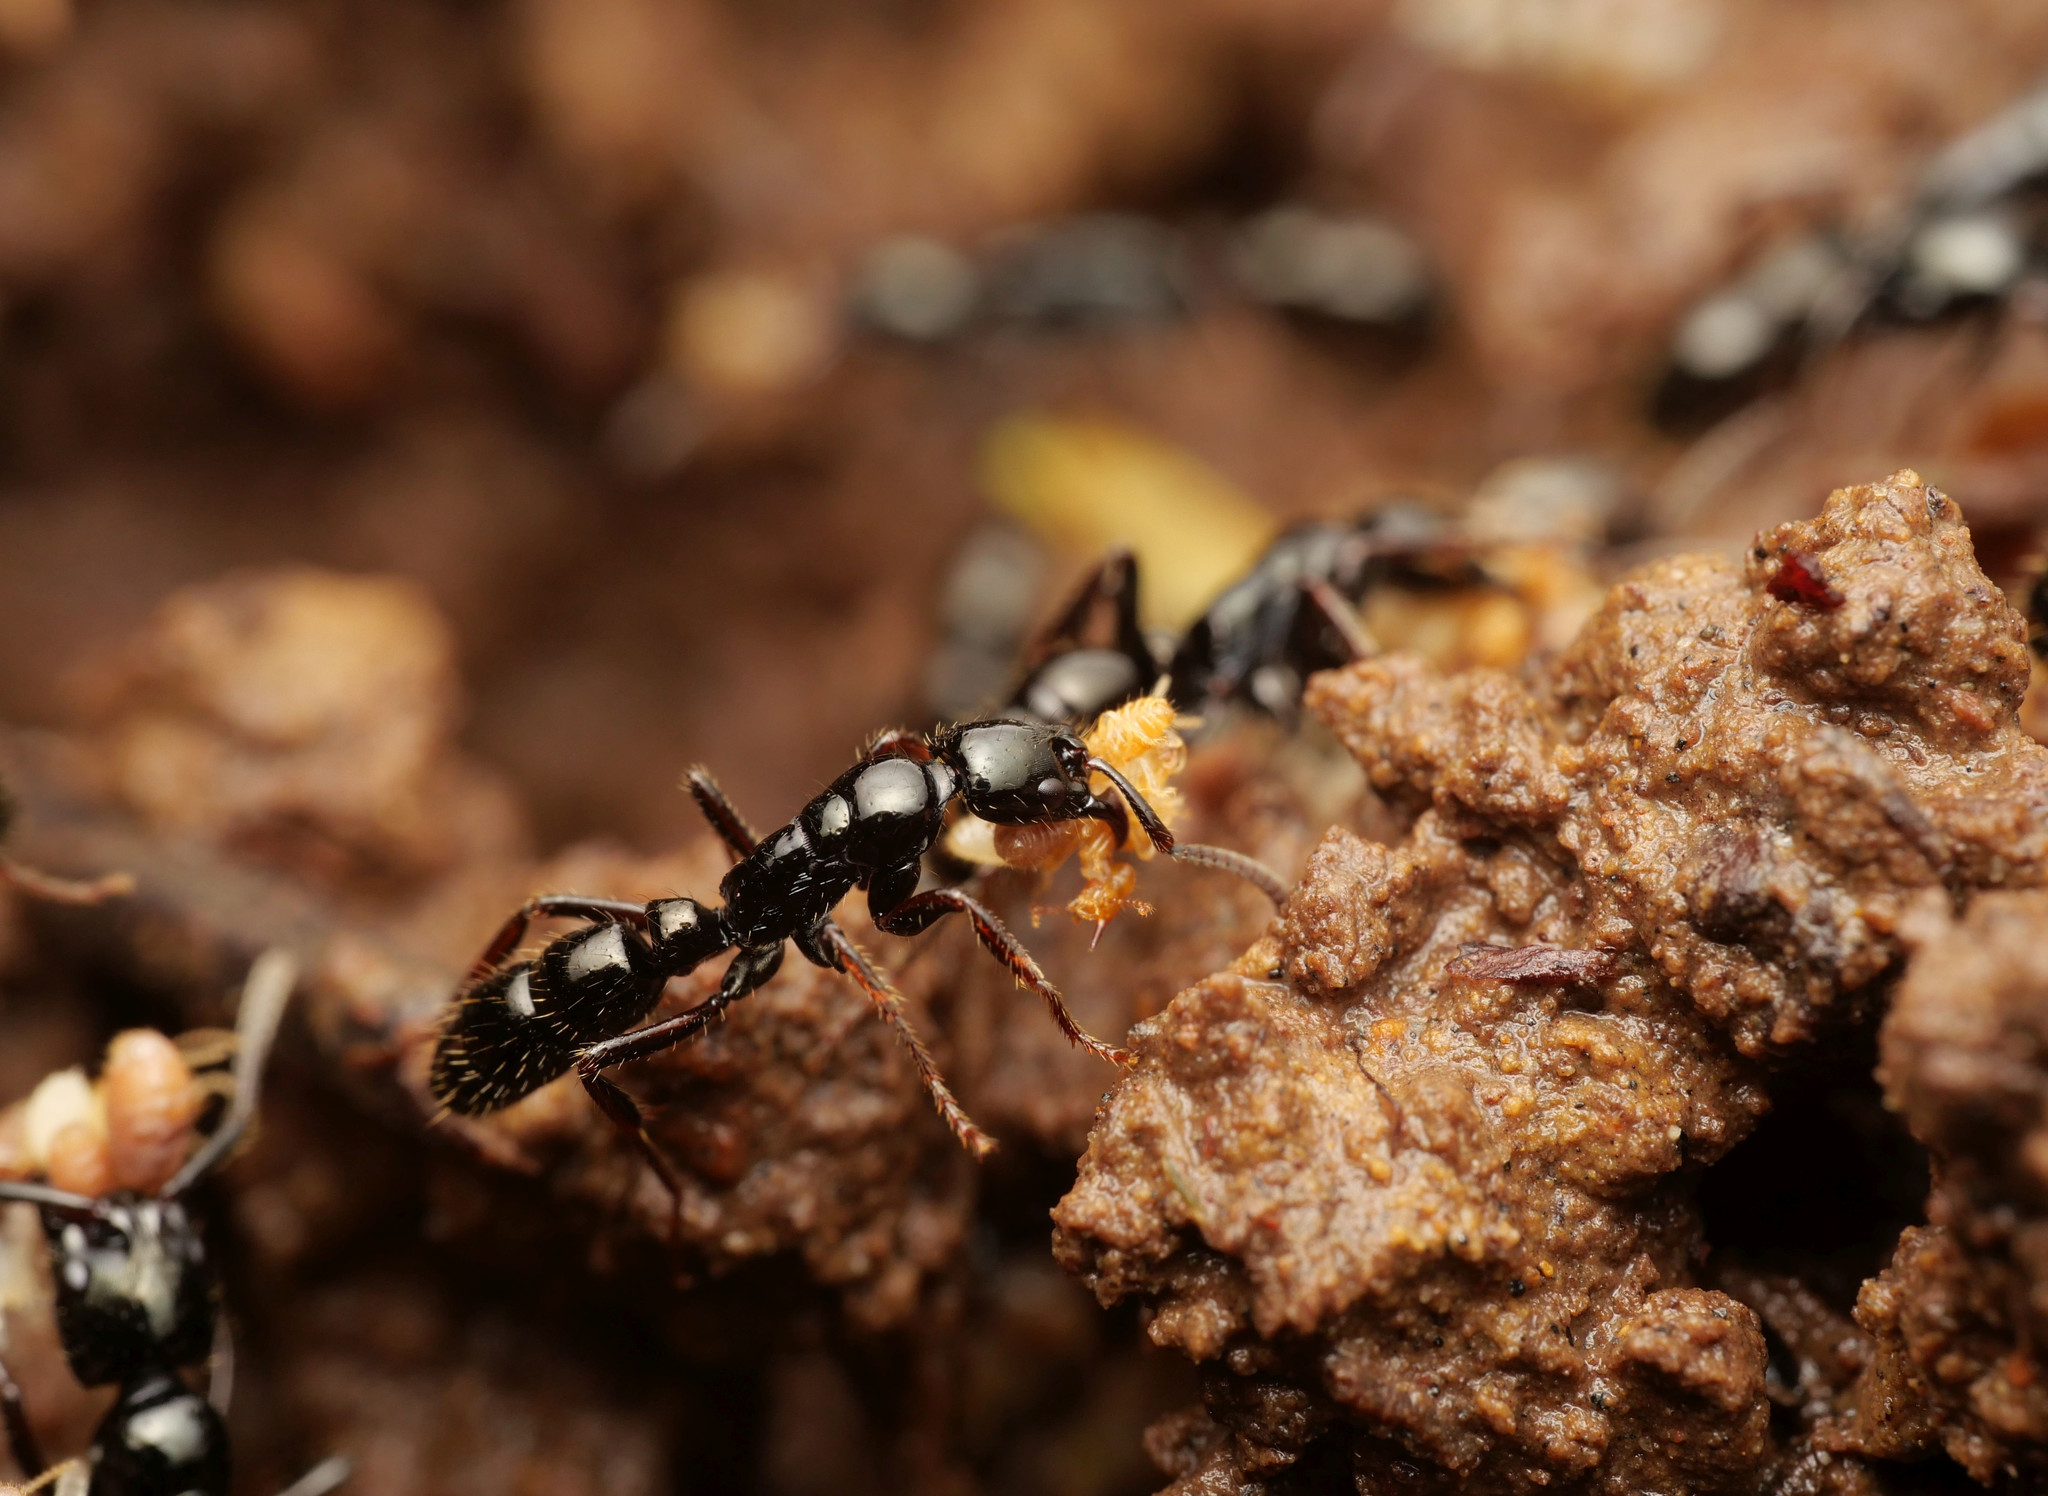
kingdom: Animalia
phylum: Arthropoda
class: Insecta
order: Hymenoptera
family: Formicidae
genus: Neoponera
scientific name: Neoponera laevigata
